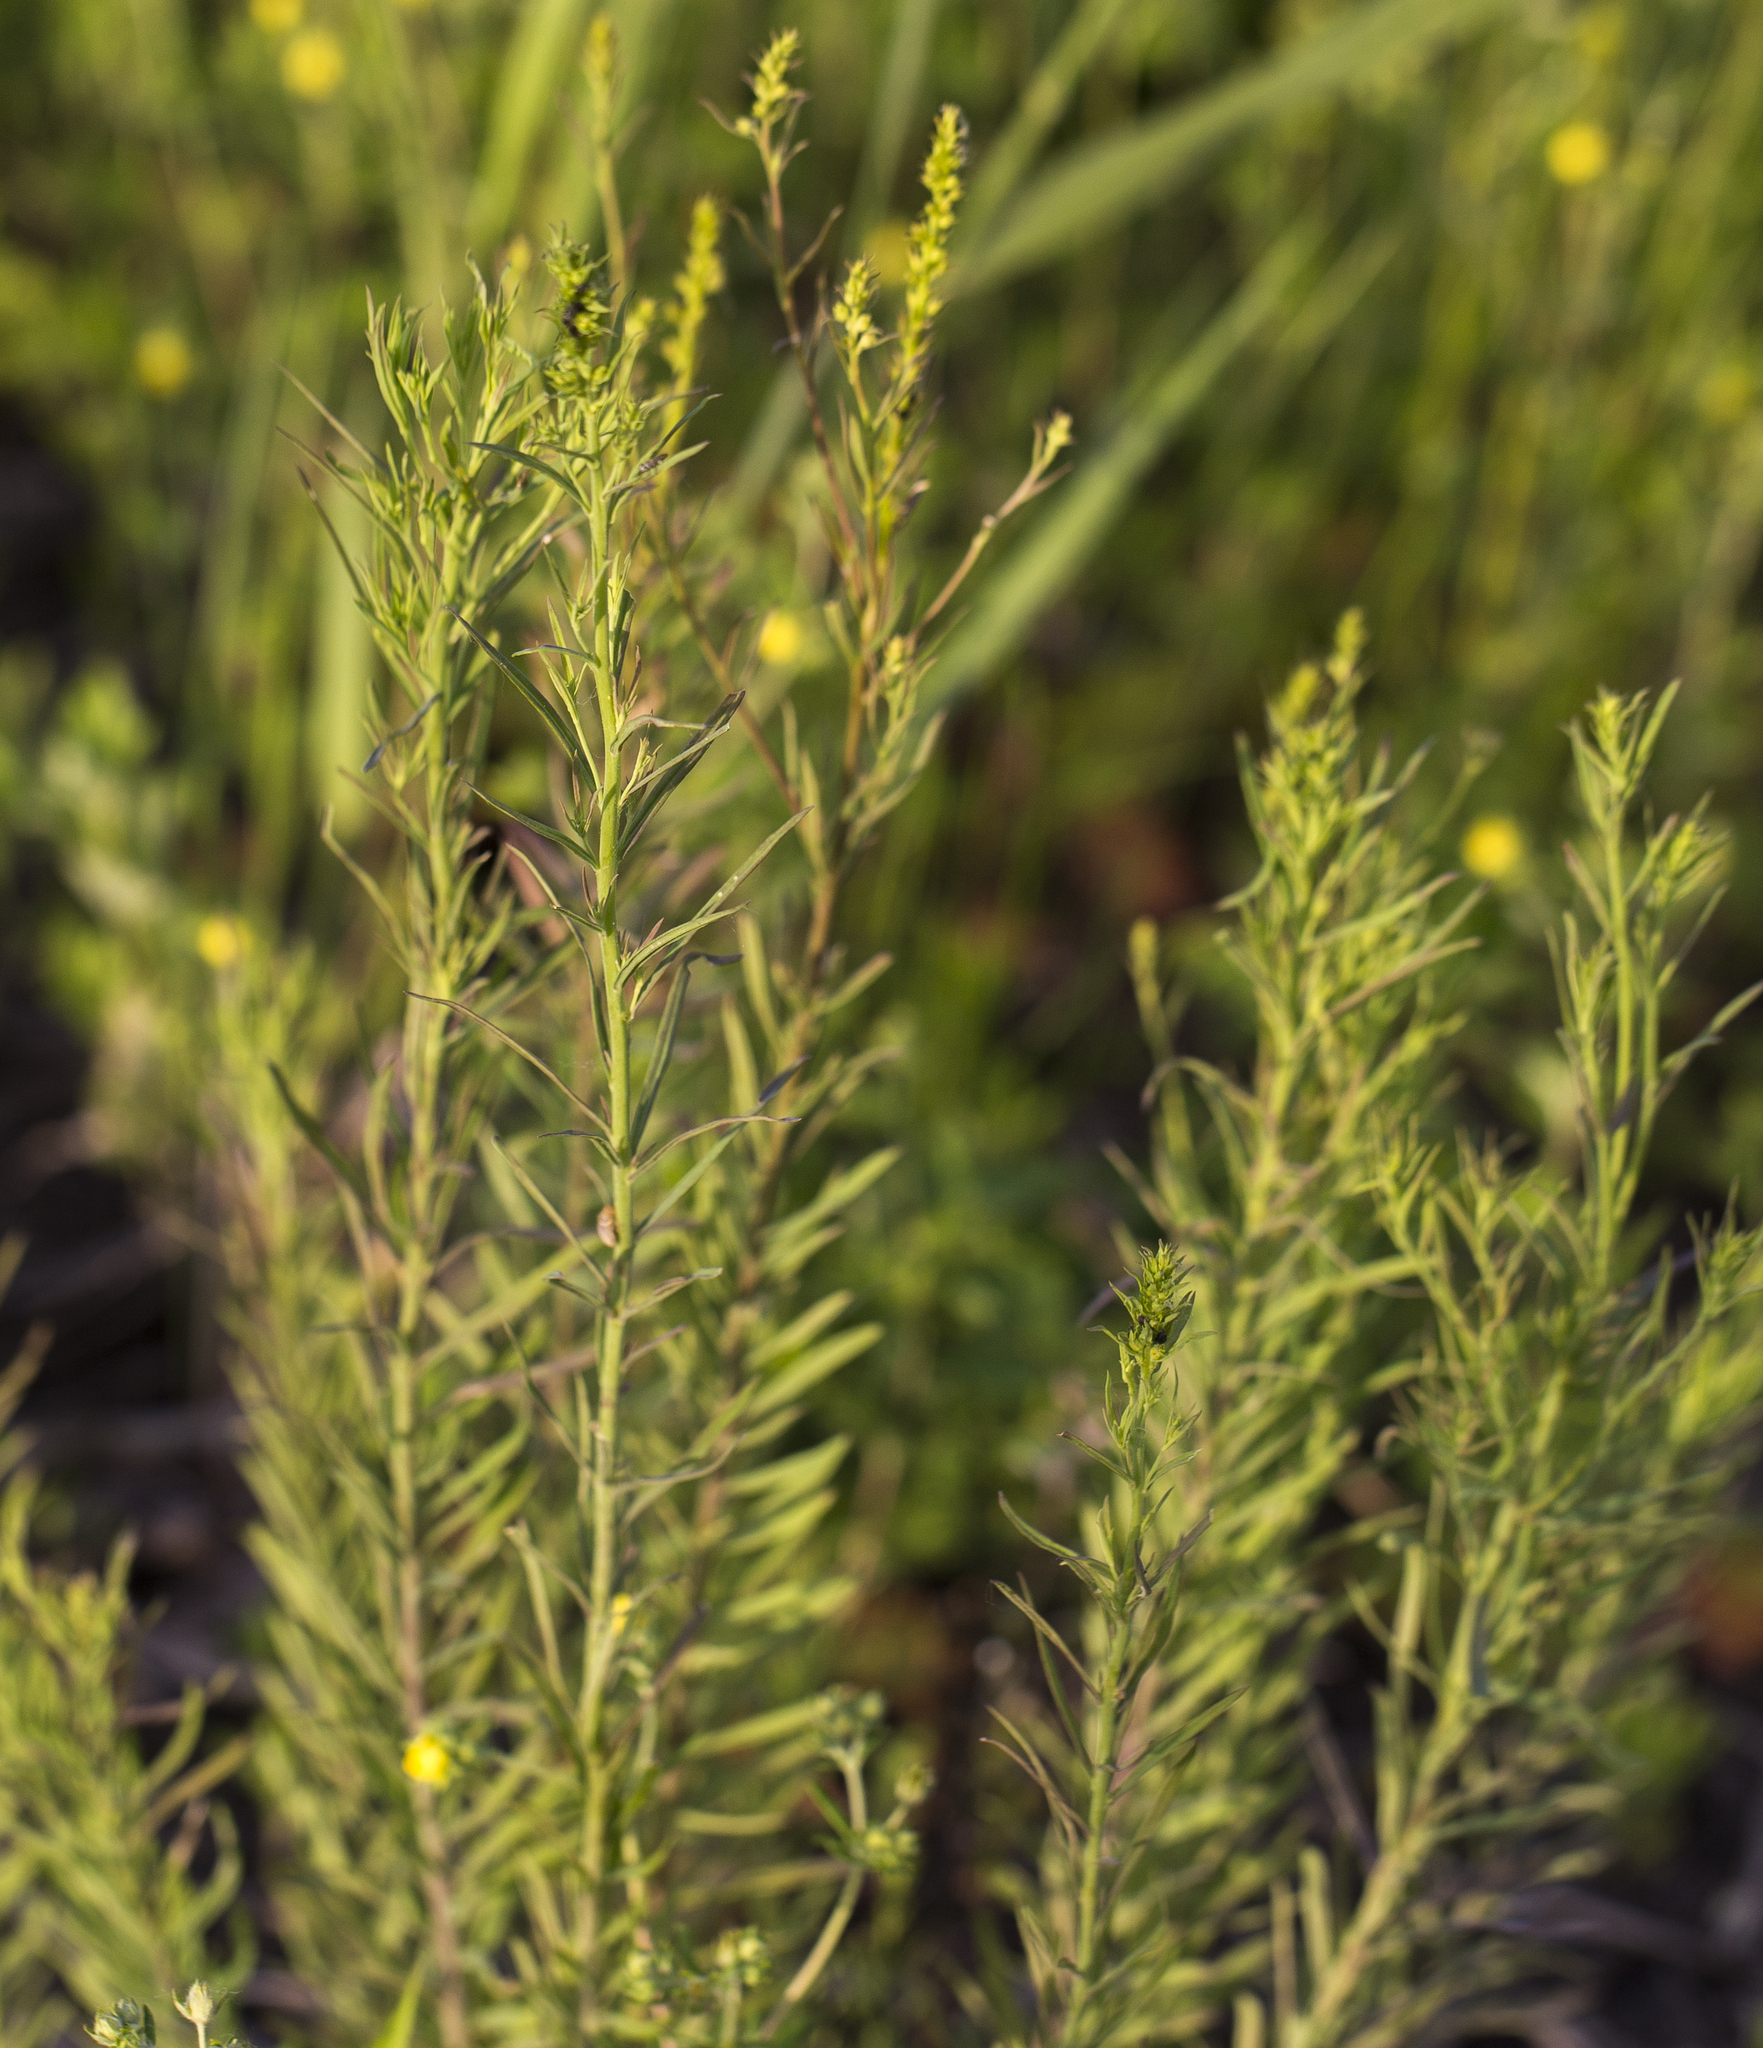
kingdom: Plantae
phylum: Tracheophyta
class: Magnoliopsida
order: Lamiales
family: Plantaginaceae
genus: Linaria
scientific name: Linaria vulgaris
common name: Butter and eggs
